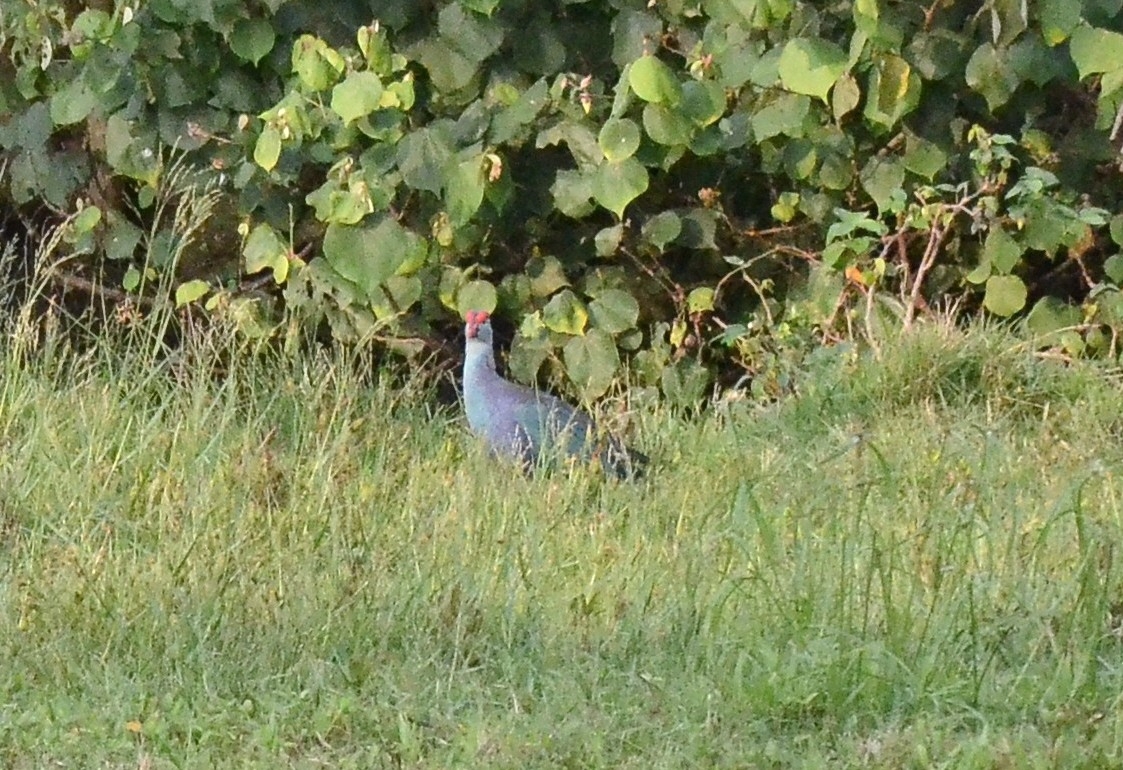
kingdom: Animalia
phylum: Chordata
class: Aves
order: Gruiformes
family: Rallidae
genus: Porphyrio
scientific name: Porphyrio porphyrio
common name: Purple swamphen
